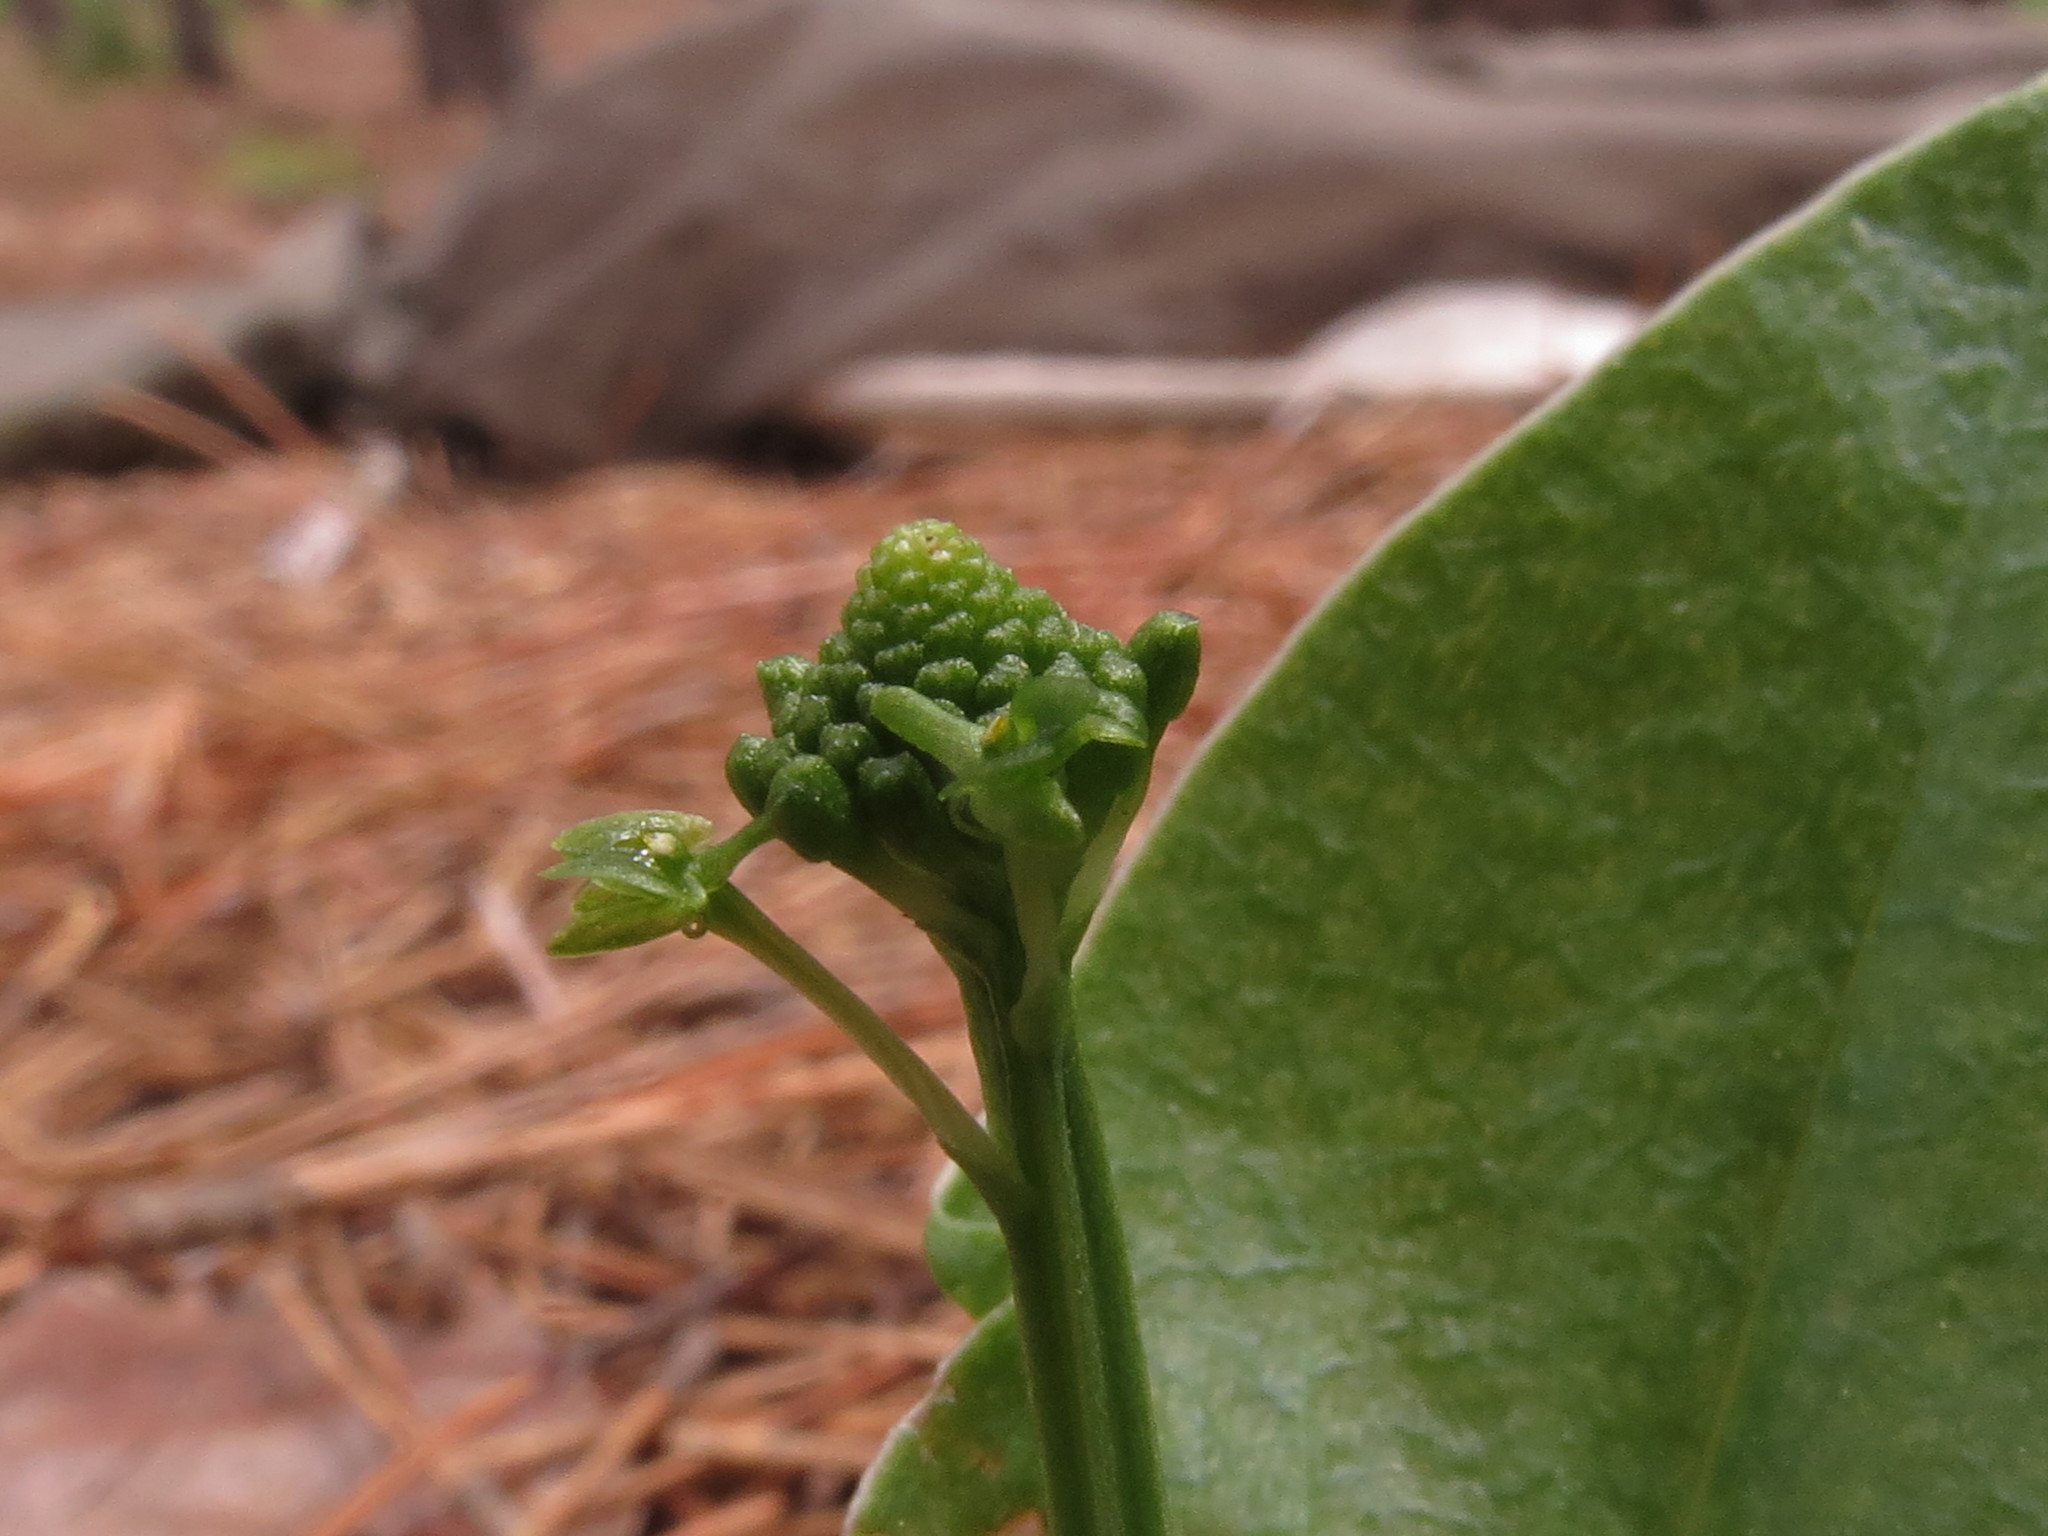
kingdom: Plantae
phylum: Tracheophyta
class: Liliopsida
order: Asparagales
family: Orchidaceae
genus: Malaxis
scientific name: Malaxis unifolia
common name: Green adder's-mouth
